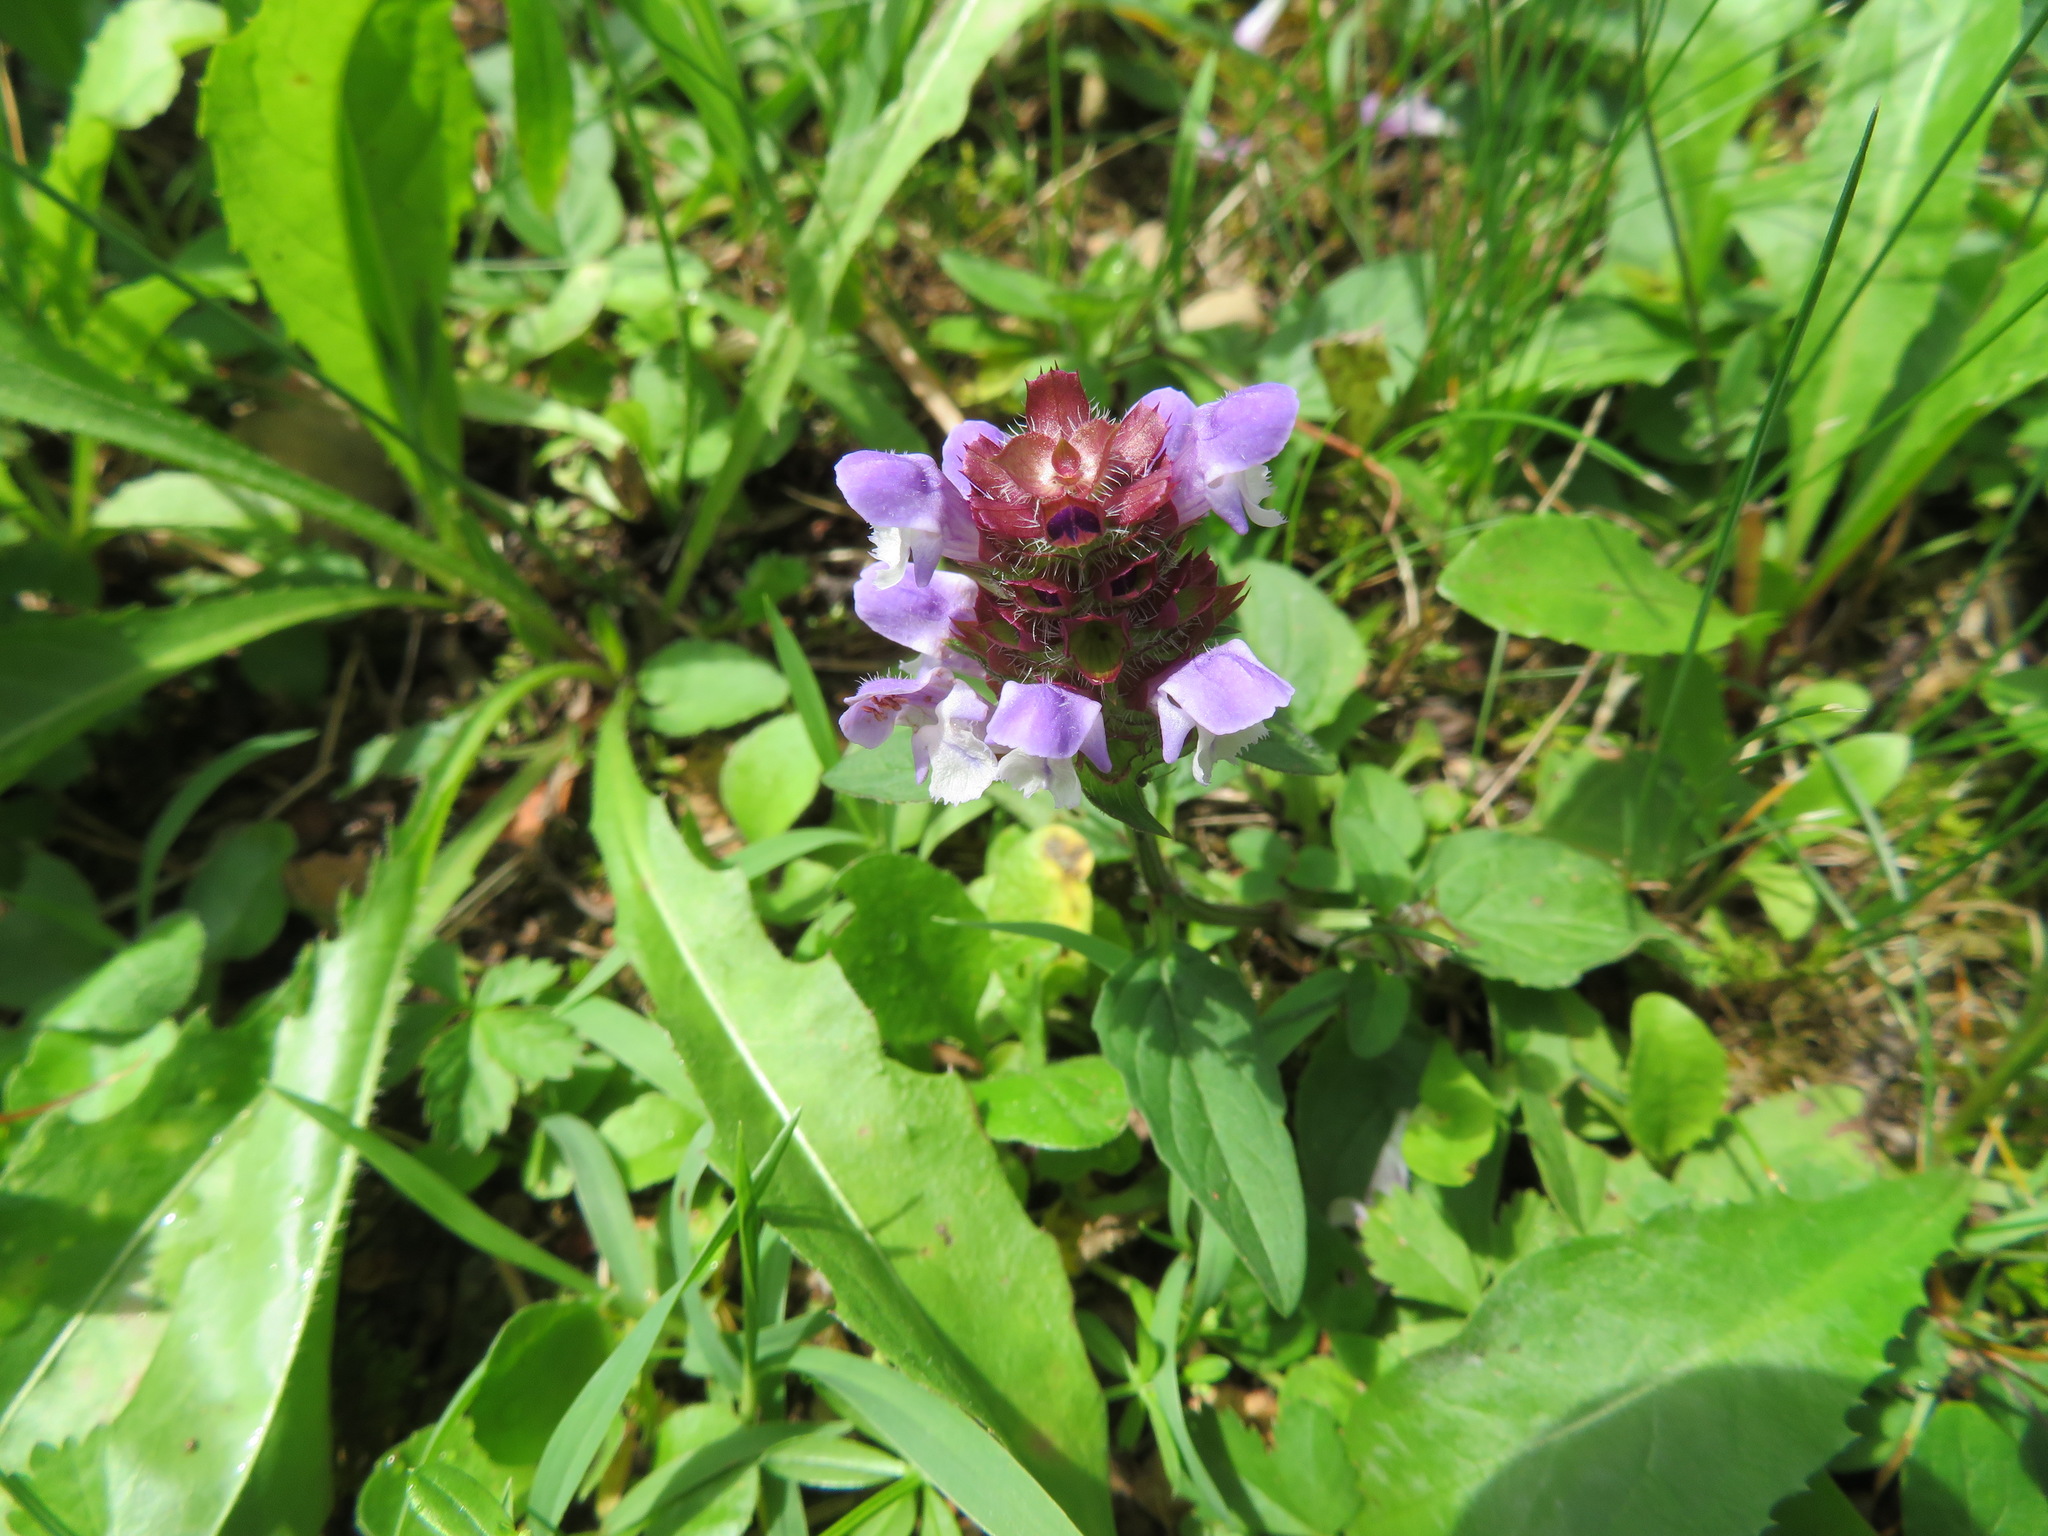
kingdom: Plantae
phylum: Tracheophyta
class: Magnoliopsida
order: Lamiales
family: Lamiaceae
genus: Prunella
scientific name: Prunella vulgaris
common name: Heal-all
